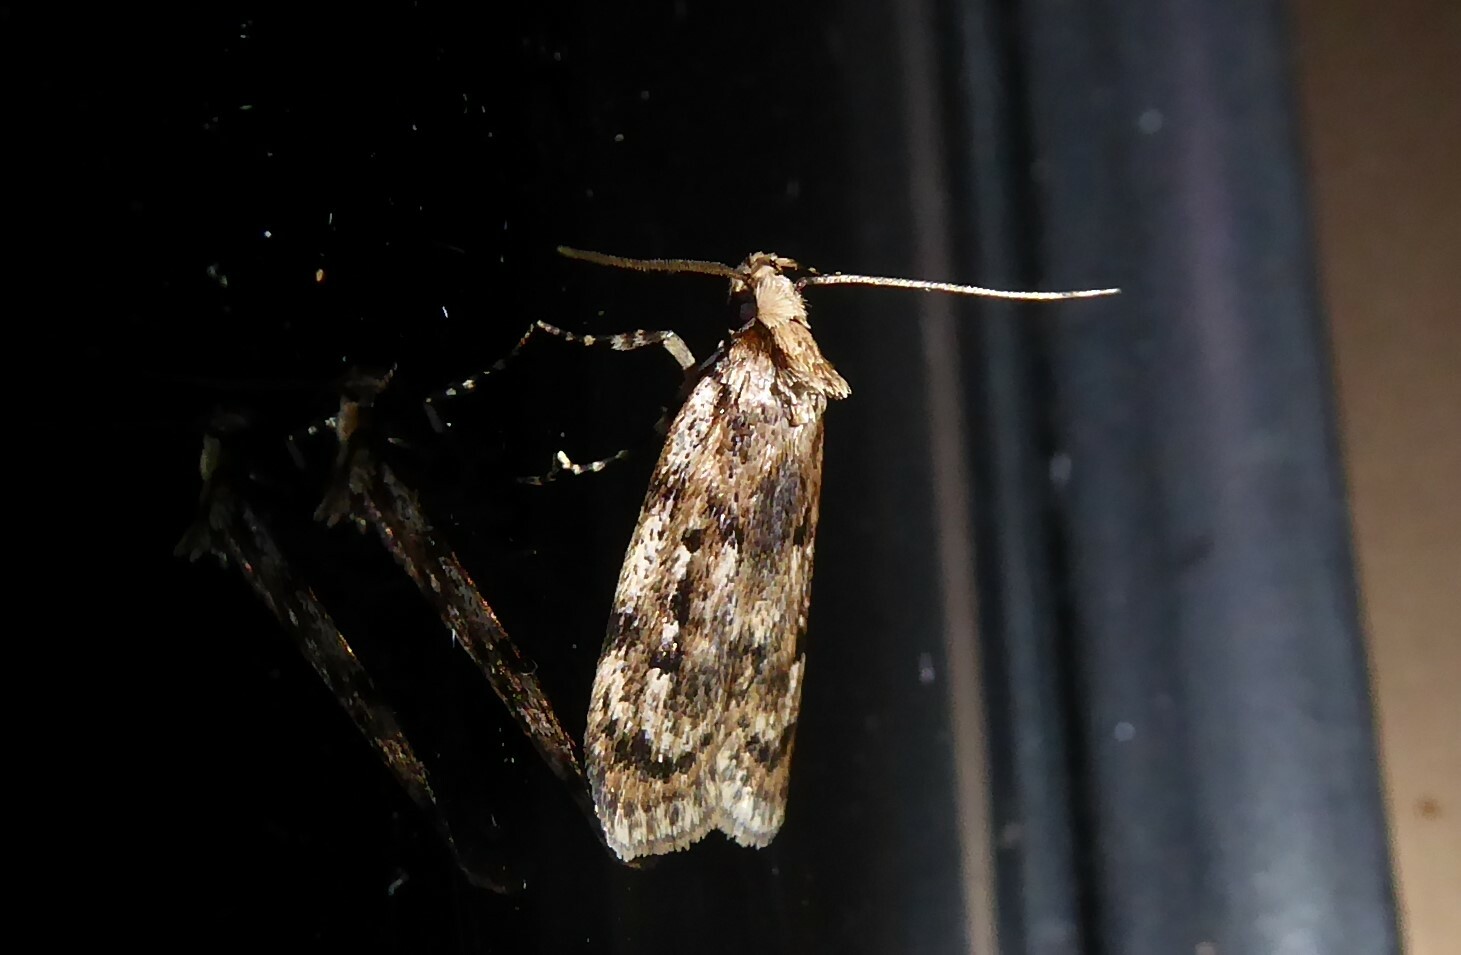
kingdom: Animalia
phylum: Arthropoda
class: Insecta
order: Lepidoptera
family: Oecophoridae
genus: Barea
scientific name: Barea exarcha
